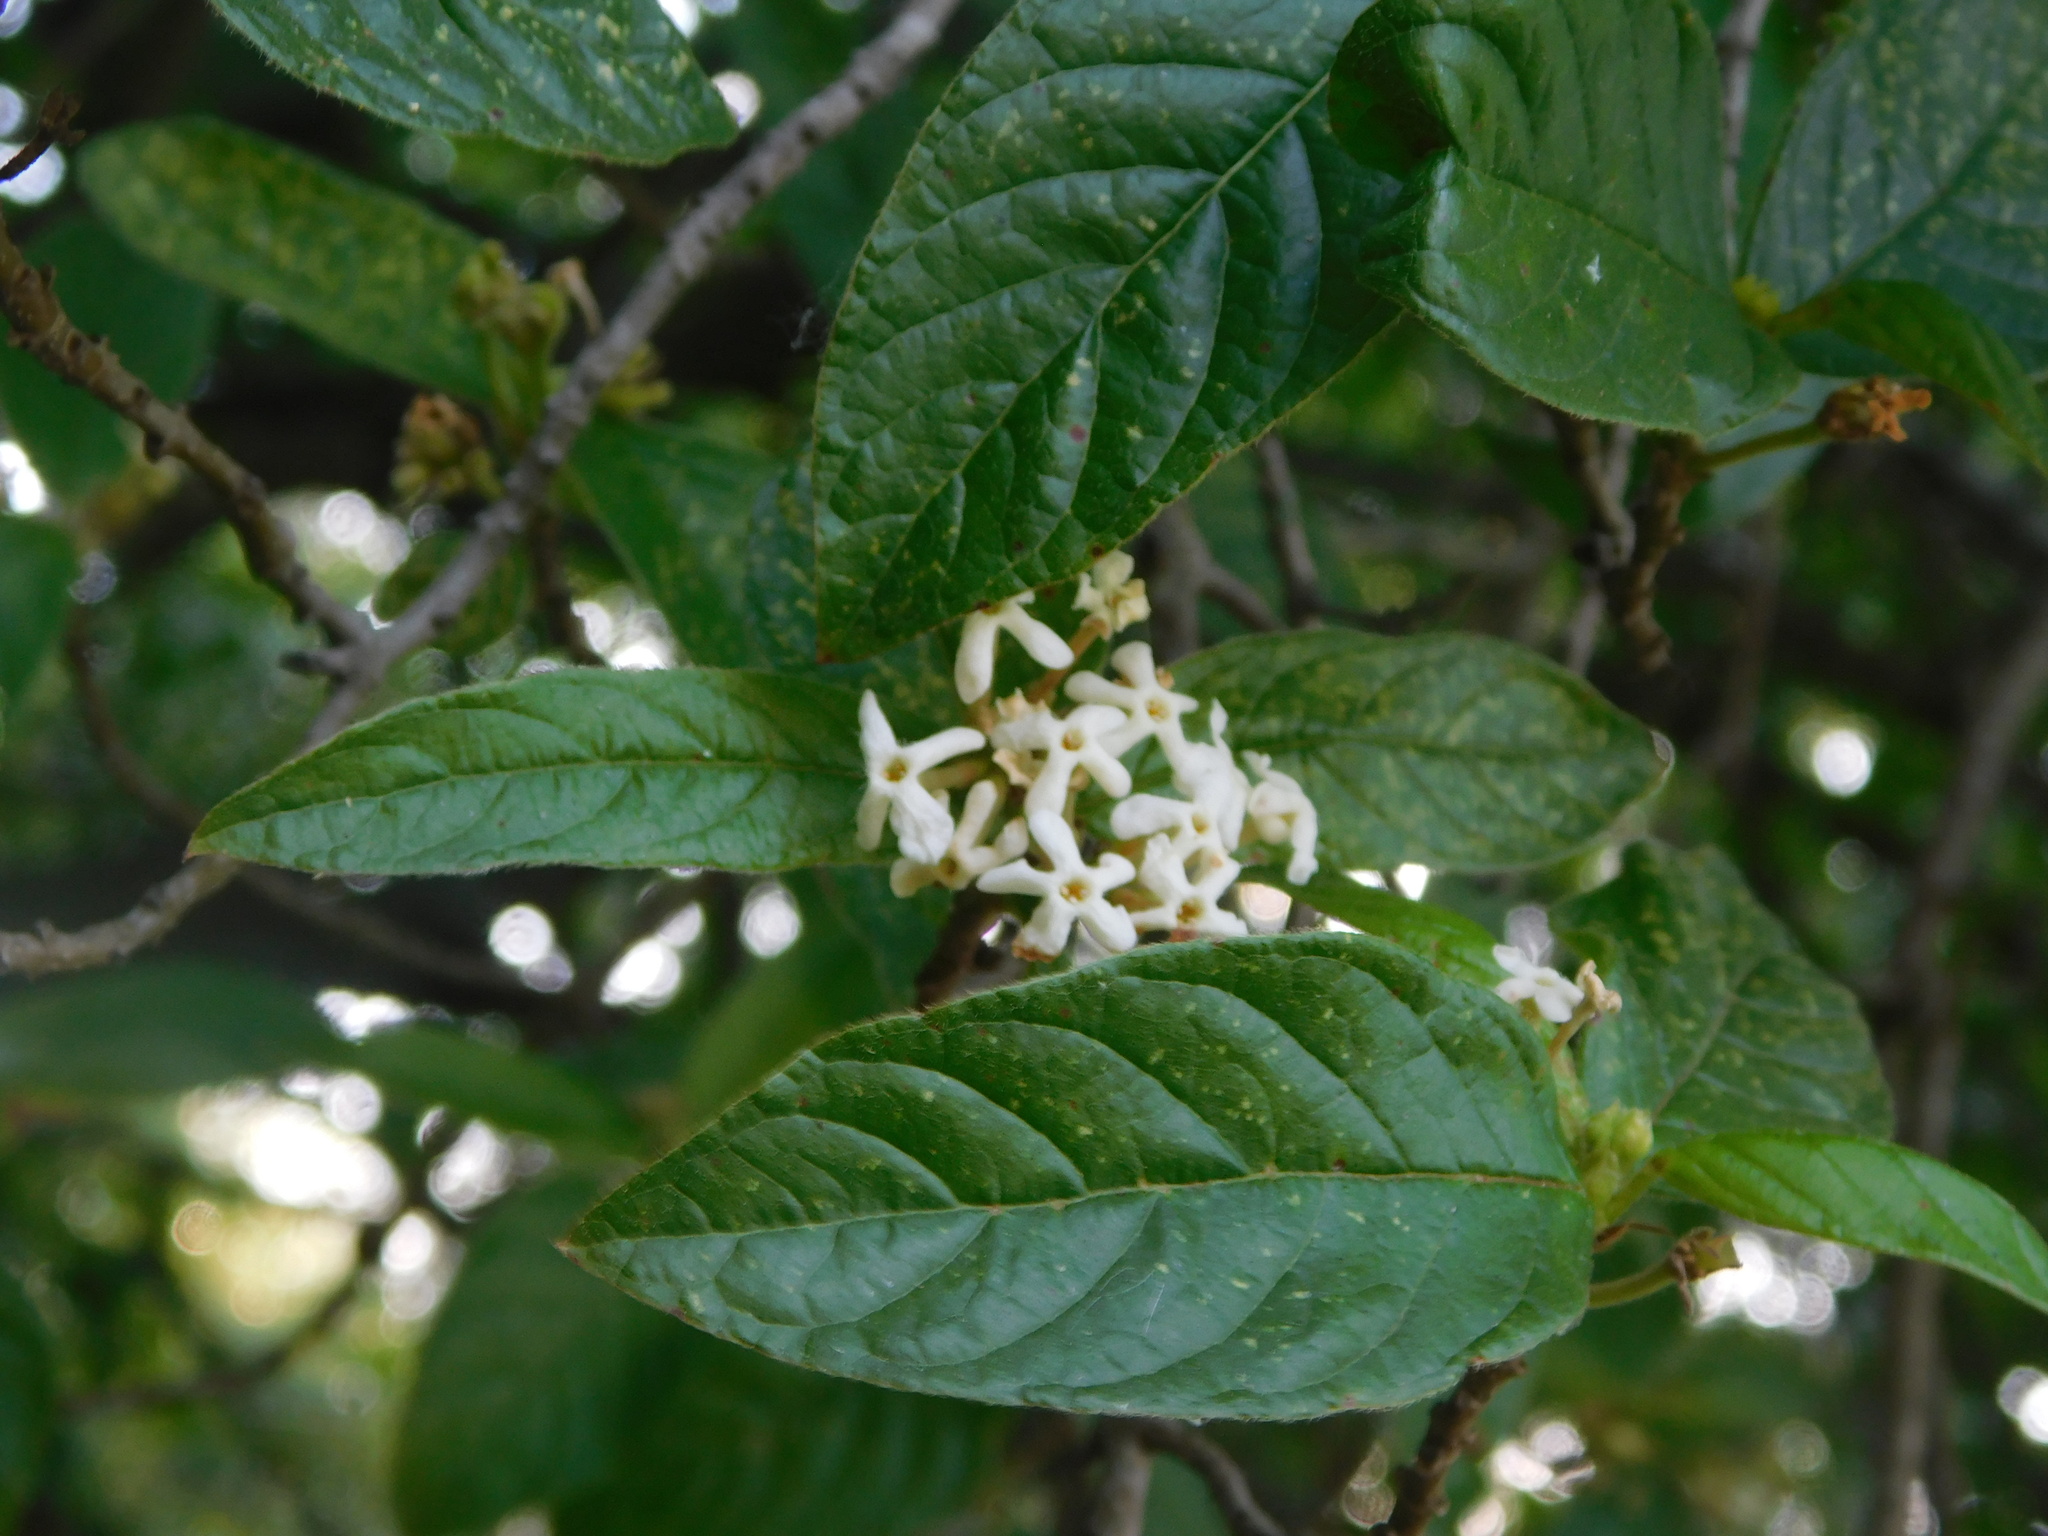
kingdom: Plantae
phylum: Tracheophyta
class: Magnoliopsida
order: Gentianales
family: Rubiaceae
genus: Guettarda
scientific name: Guettarda uruguensis
